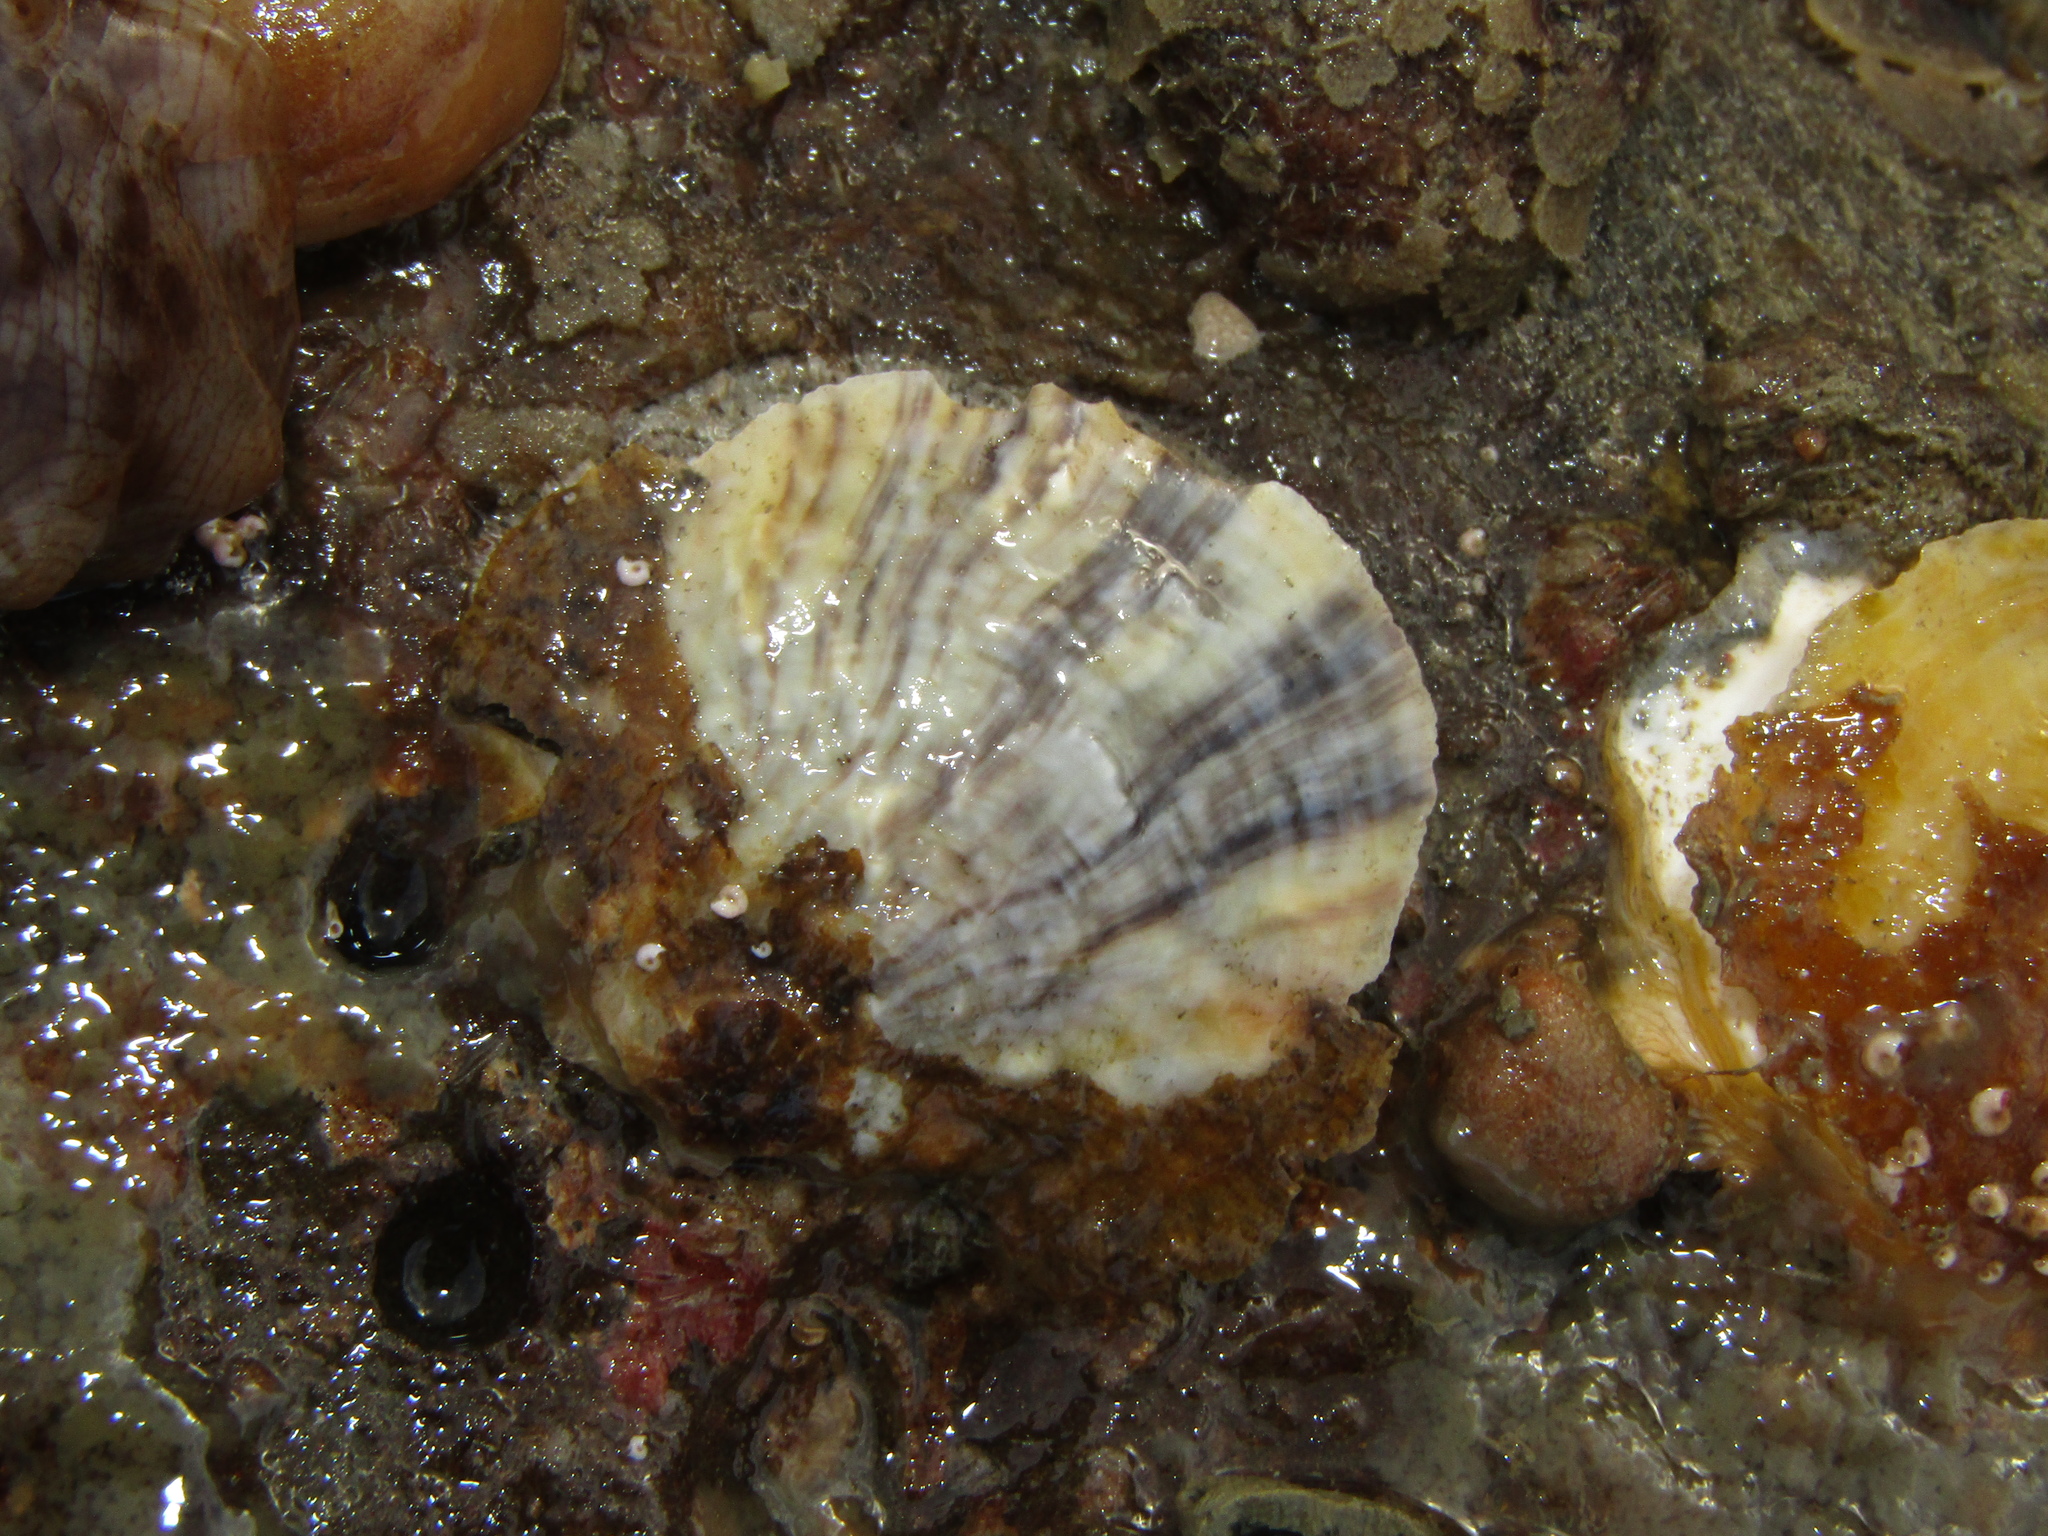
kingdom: Animalia
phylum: Mollusca
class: Bivalvia
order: Ostreida
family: Ostreidae
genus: Ostrea
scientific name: Ostrea chilensis
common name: Chilean oyster
